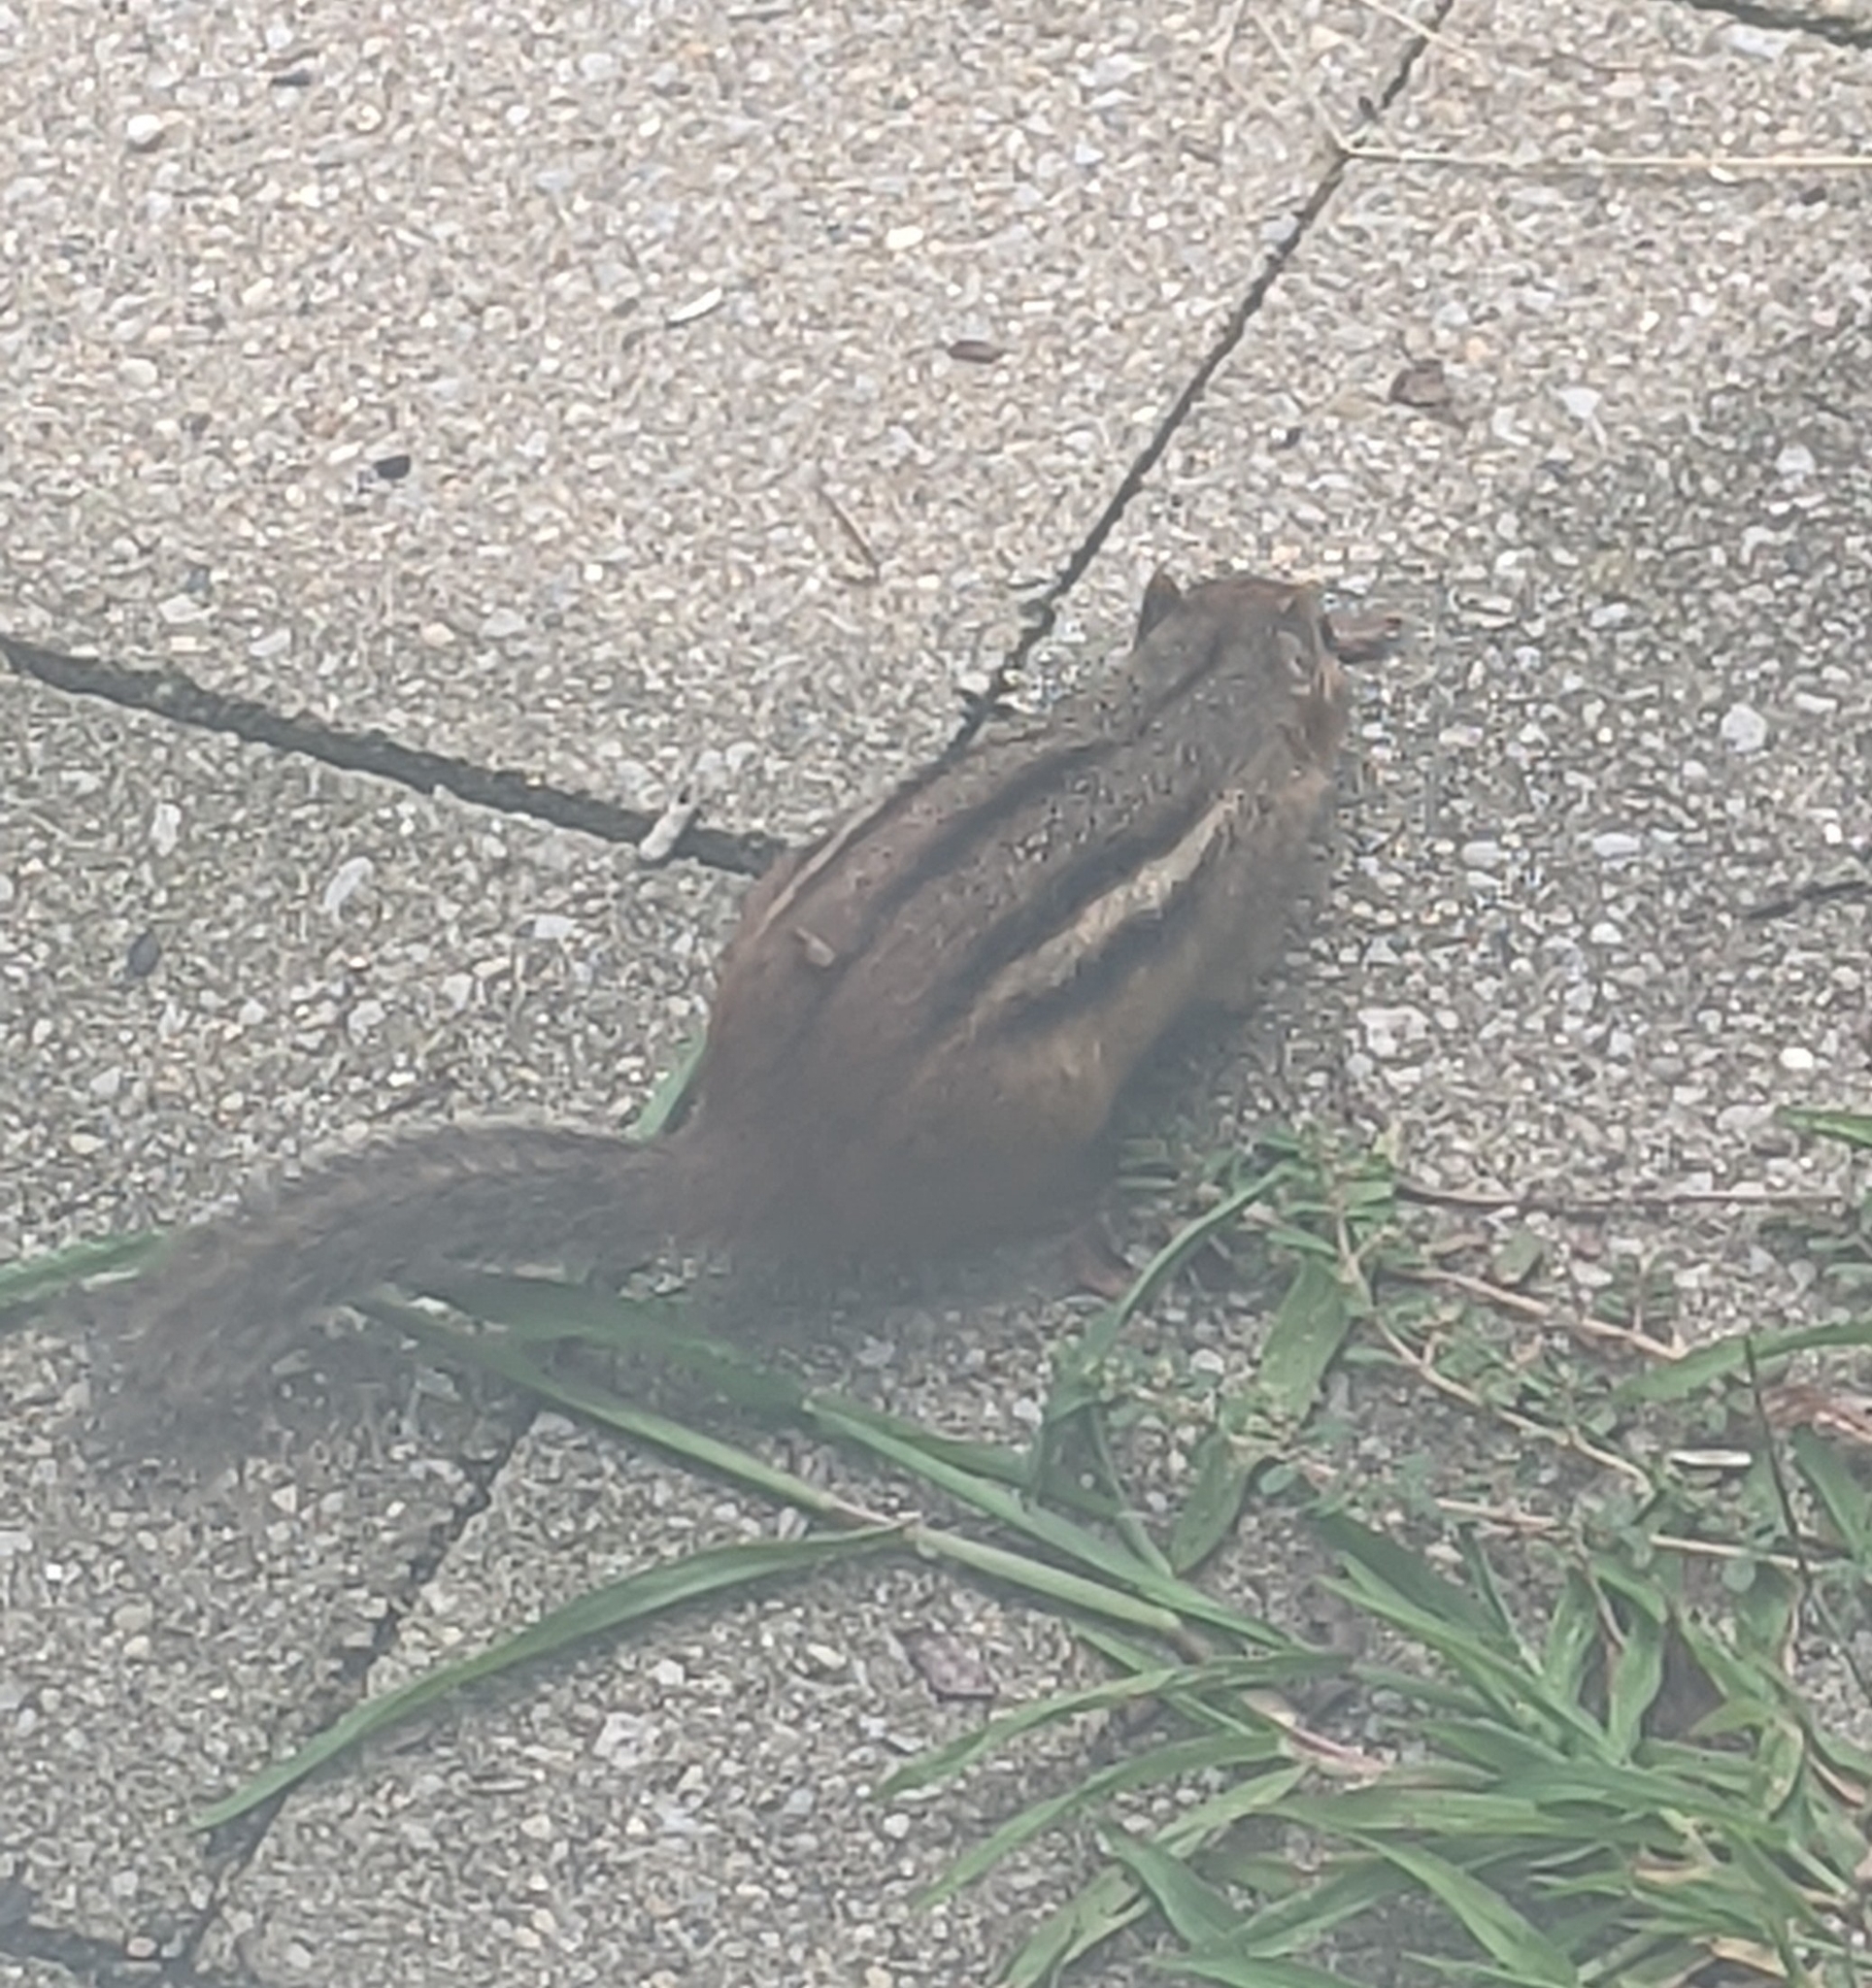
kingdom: Animalia
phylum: Chordata
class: Mammalia
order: Rodentia
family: Sciuridae
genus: Tamias
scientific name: Tamias striatus
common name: Eastern chipmunk
